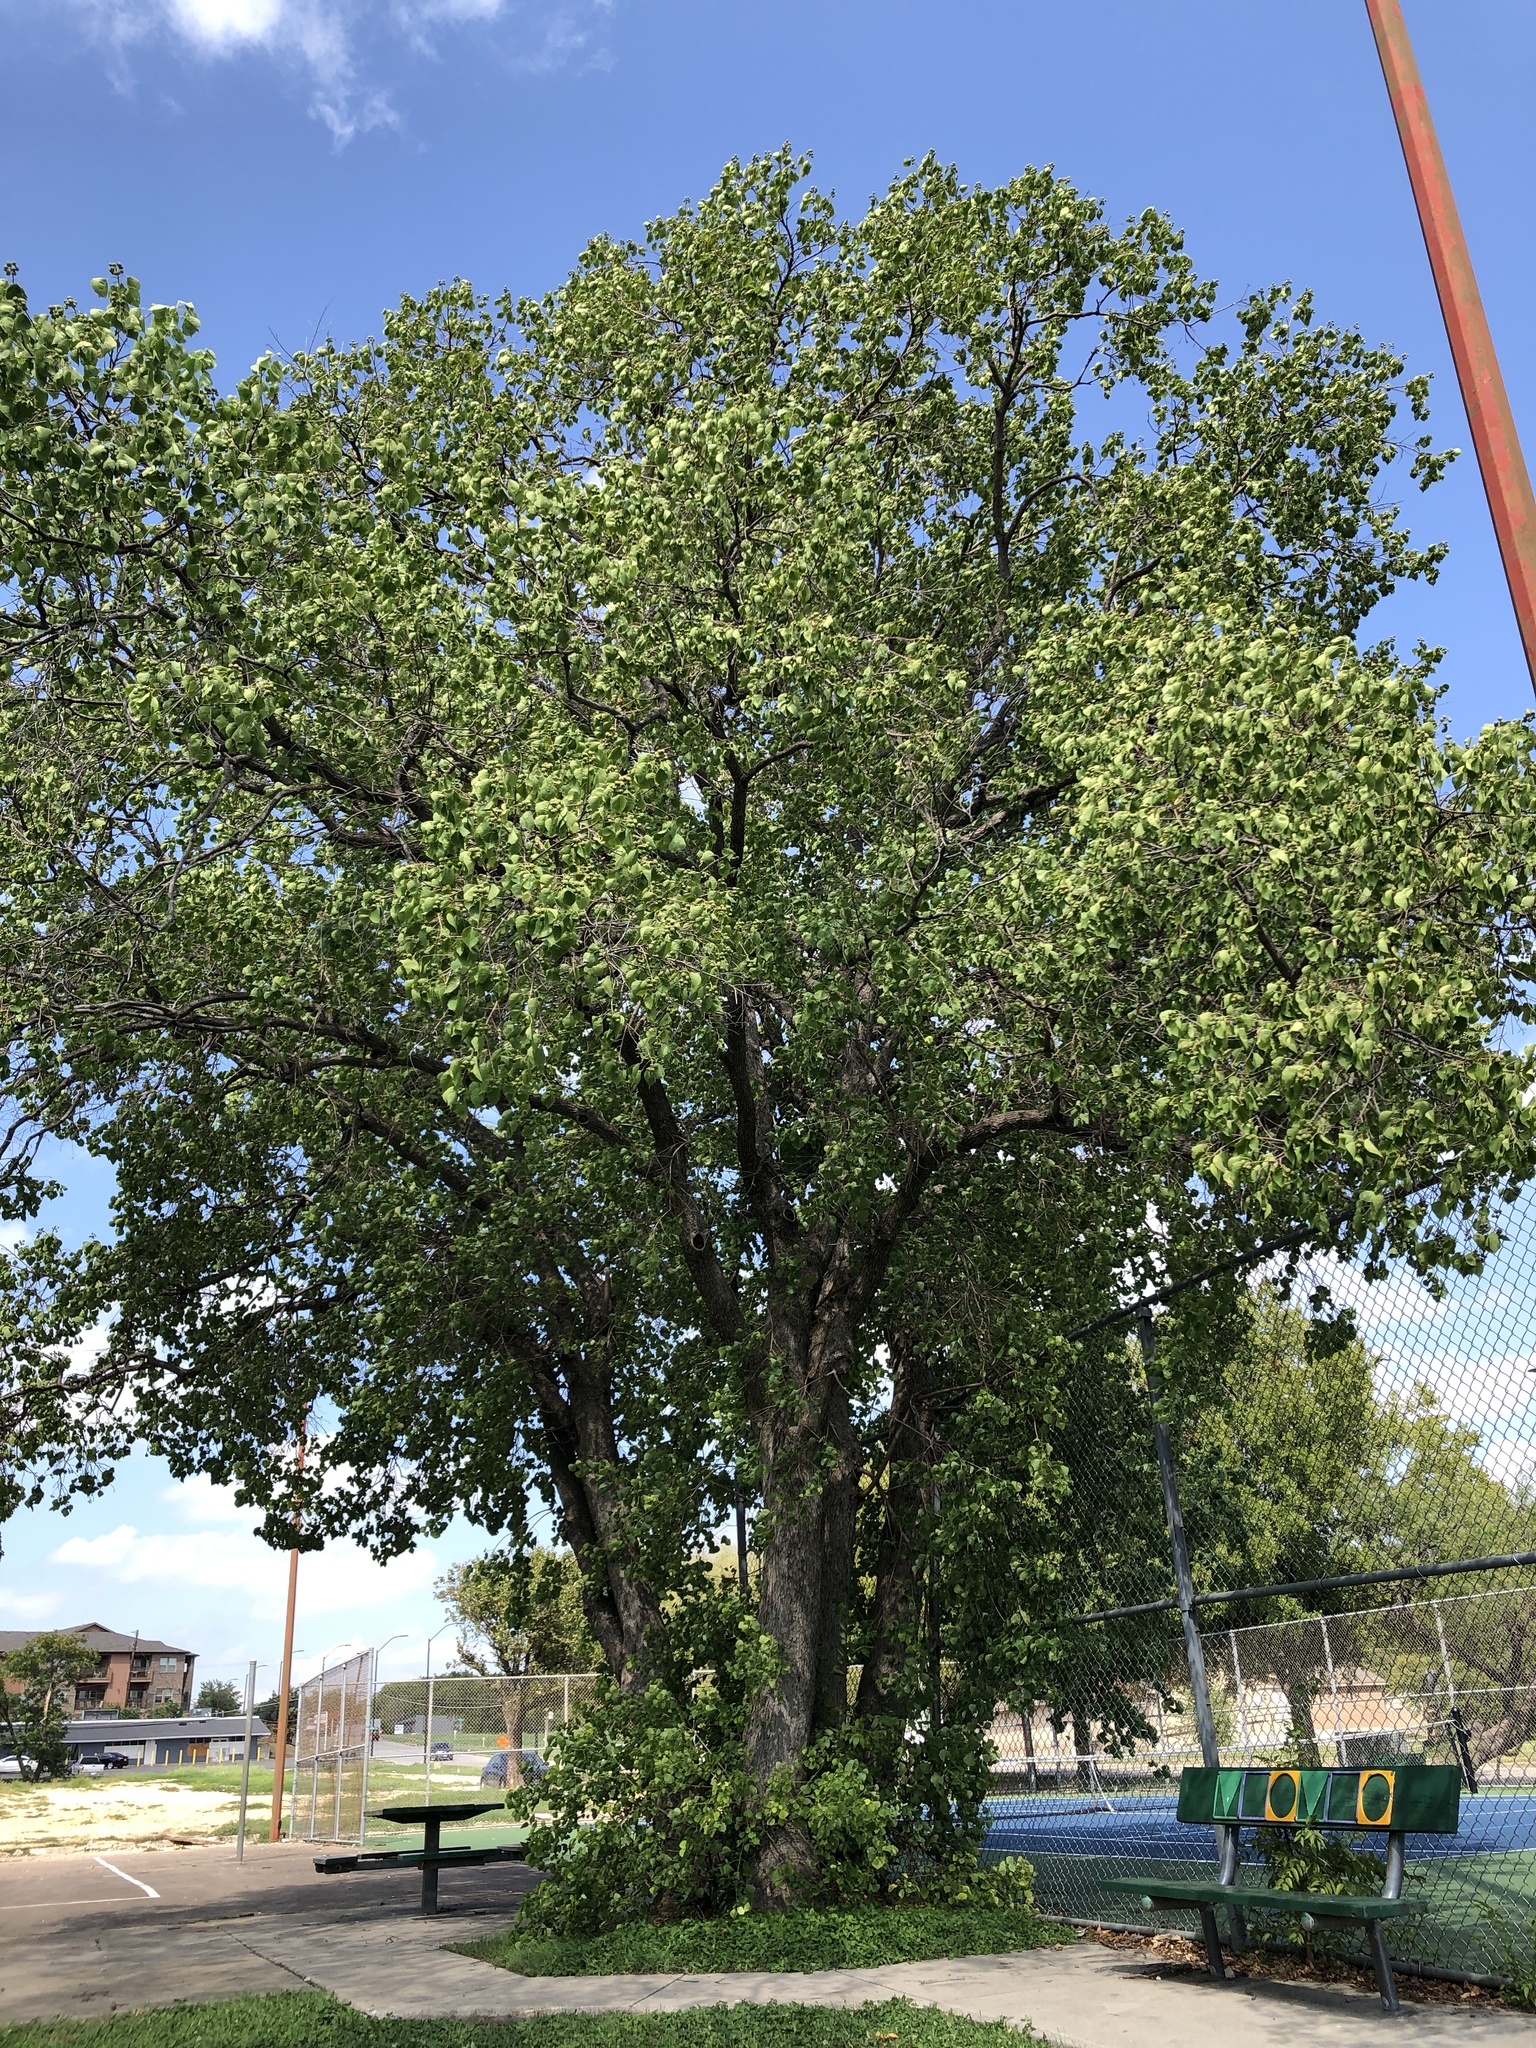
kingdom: Plantae
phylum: Tracheophyta
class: Magnoliopsida
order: Malpighiales
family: Euphorbiaceae
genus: Triadica
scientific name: Triadica sebifera
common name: Chinese tallow
